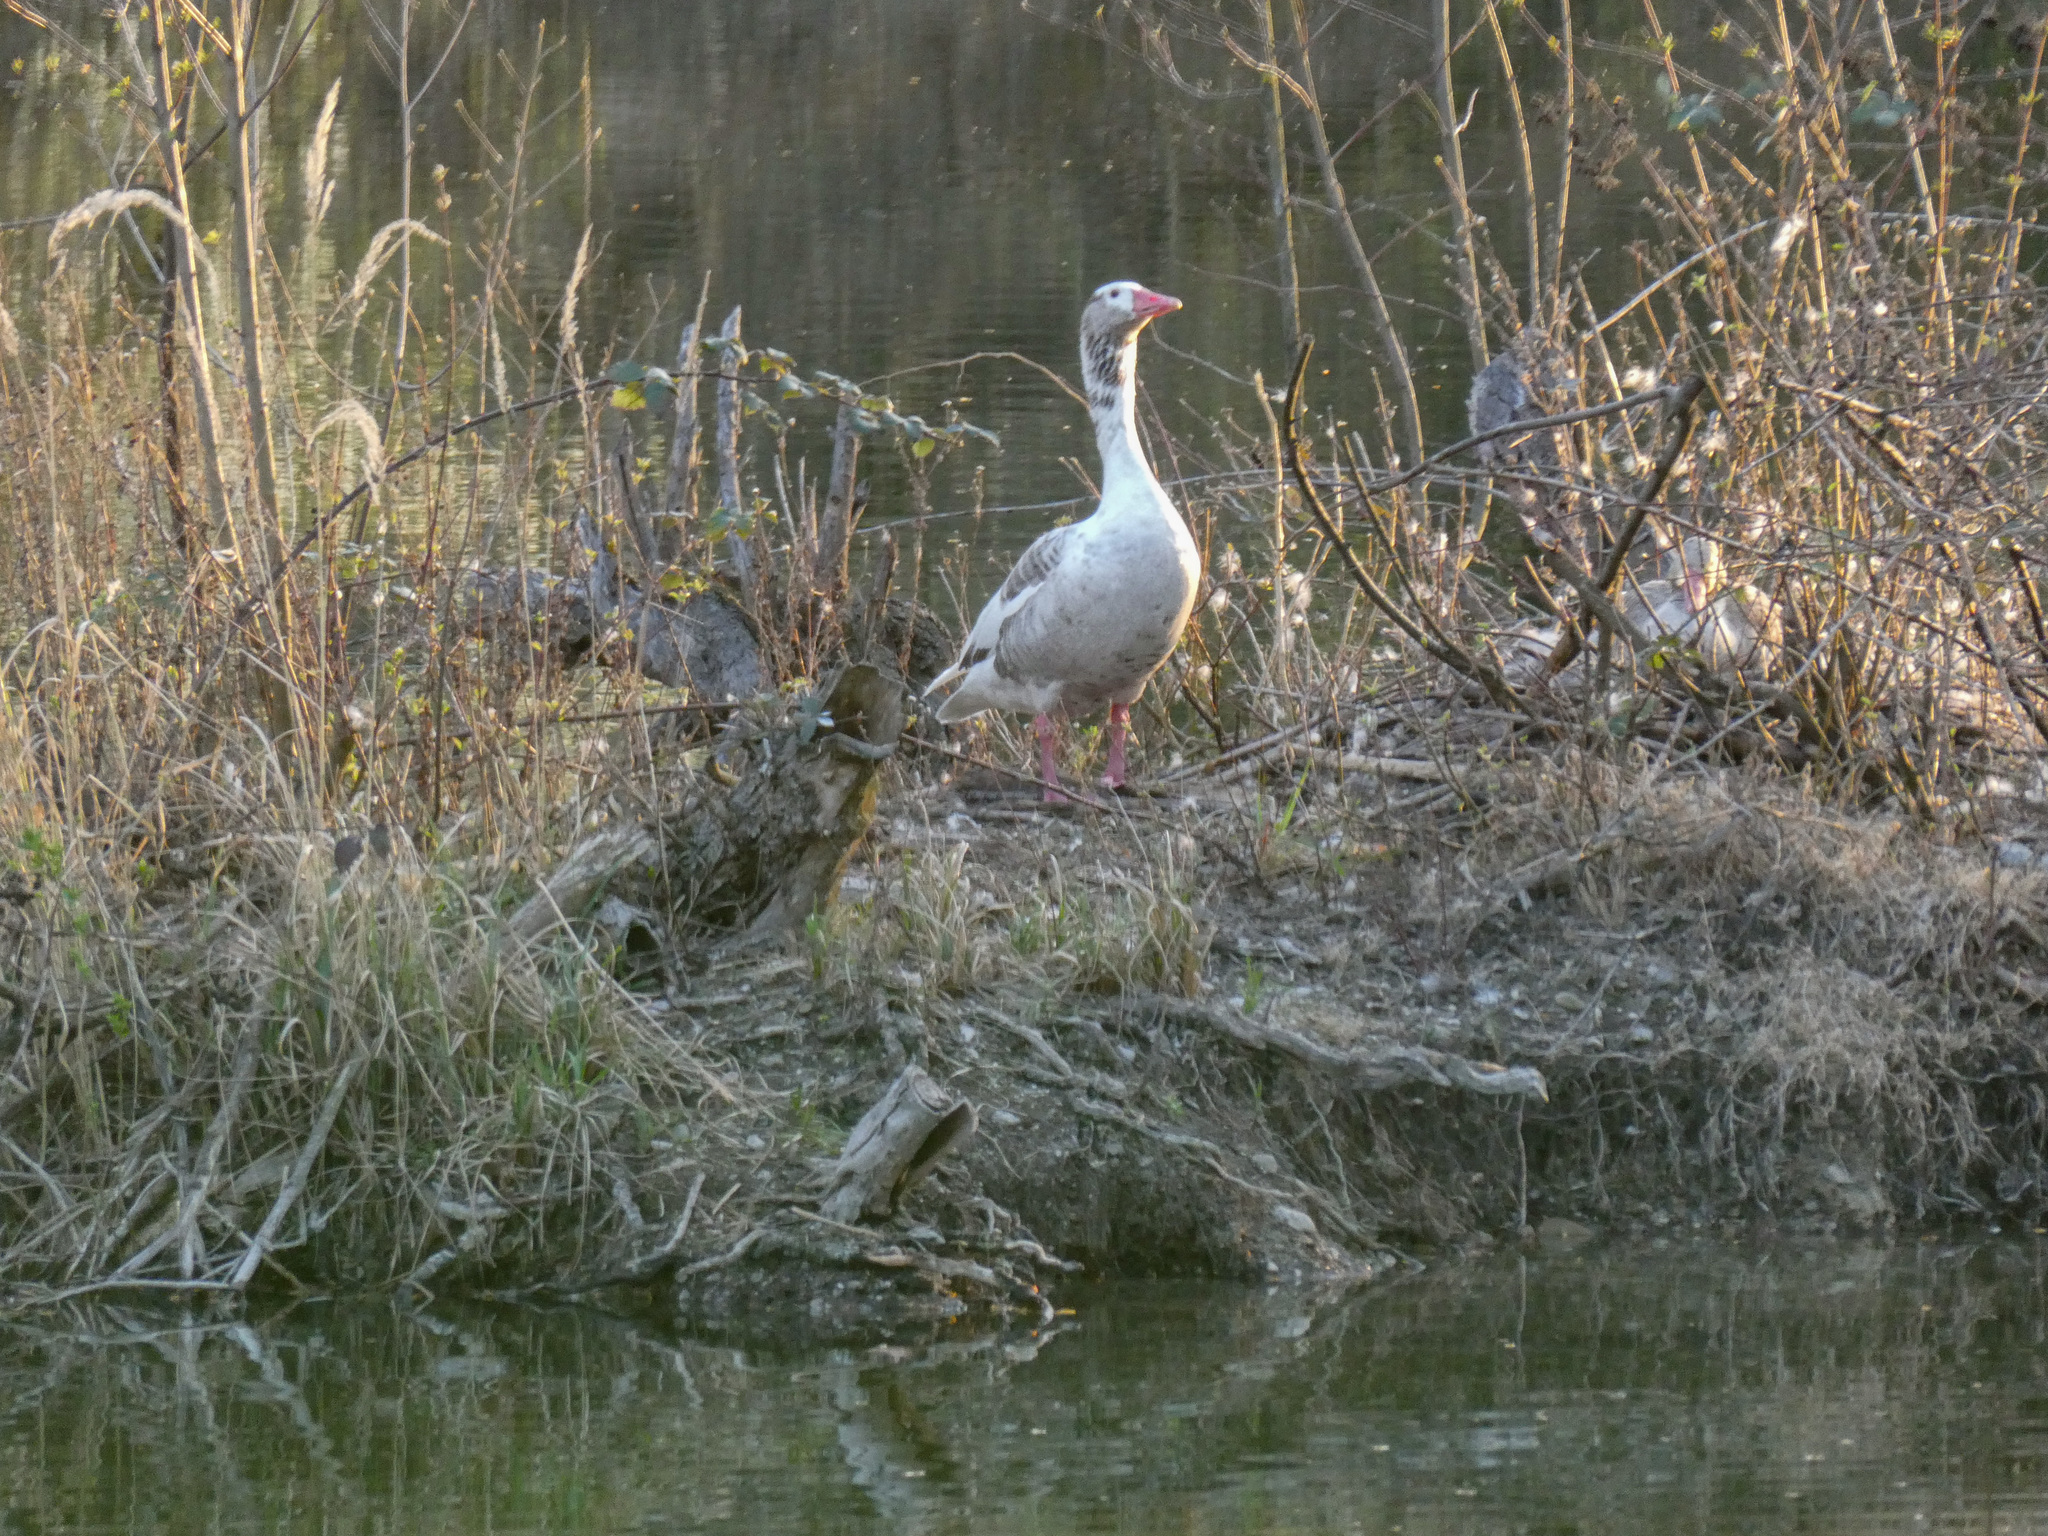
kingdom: Animalia
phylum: Chordata
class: Aves
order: Anseriformes
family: Anatidae
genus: Anser
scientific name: Anser anser
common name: Greylag goose
